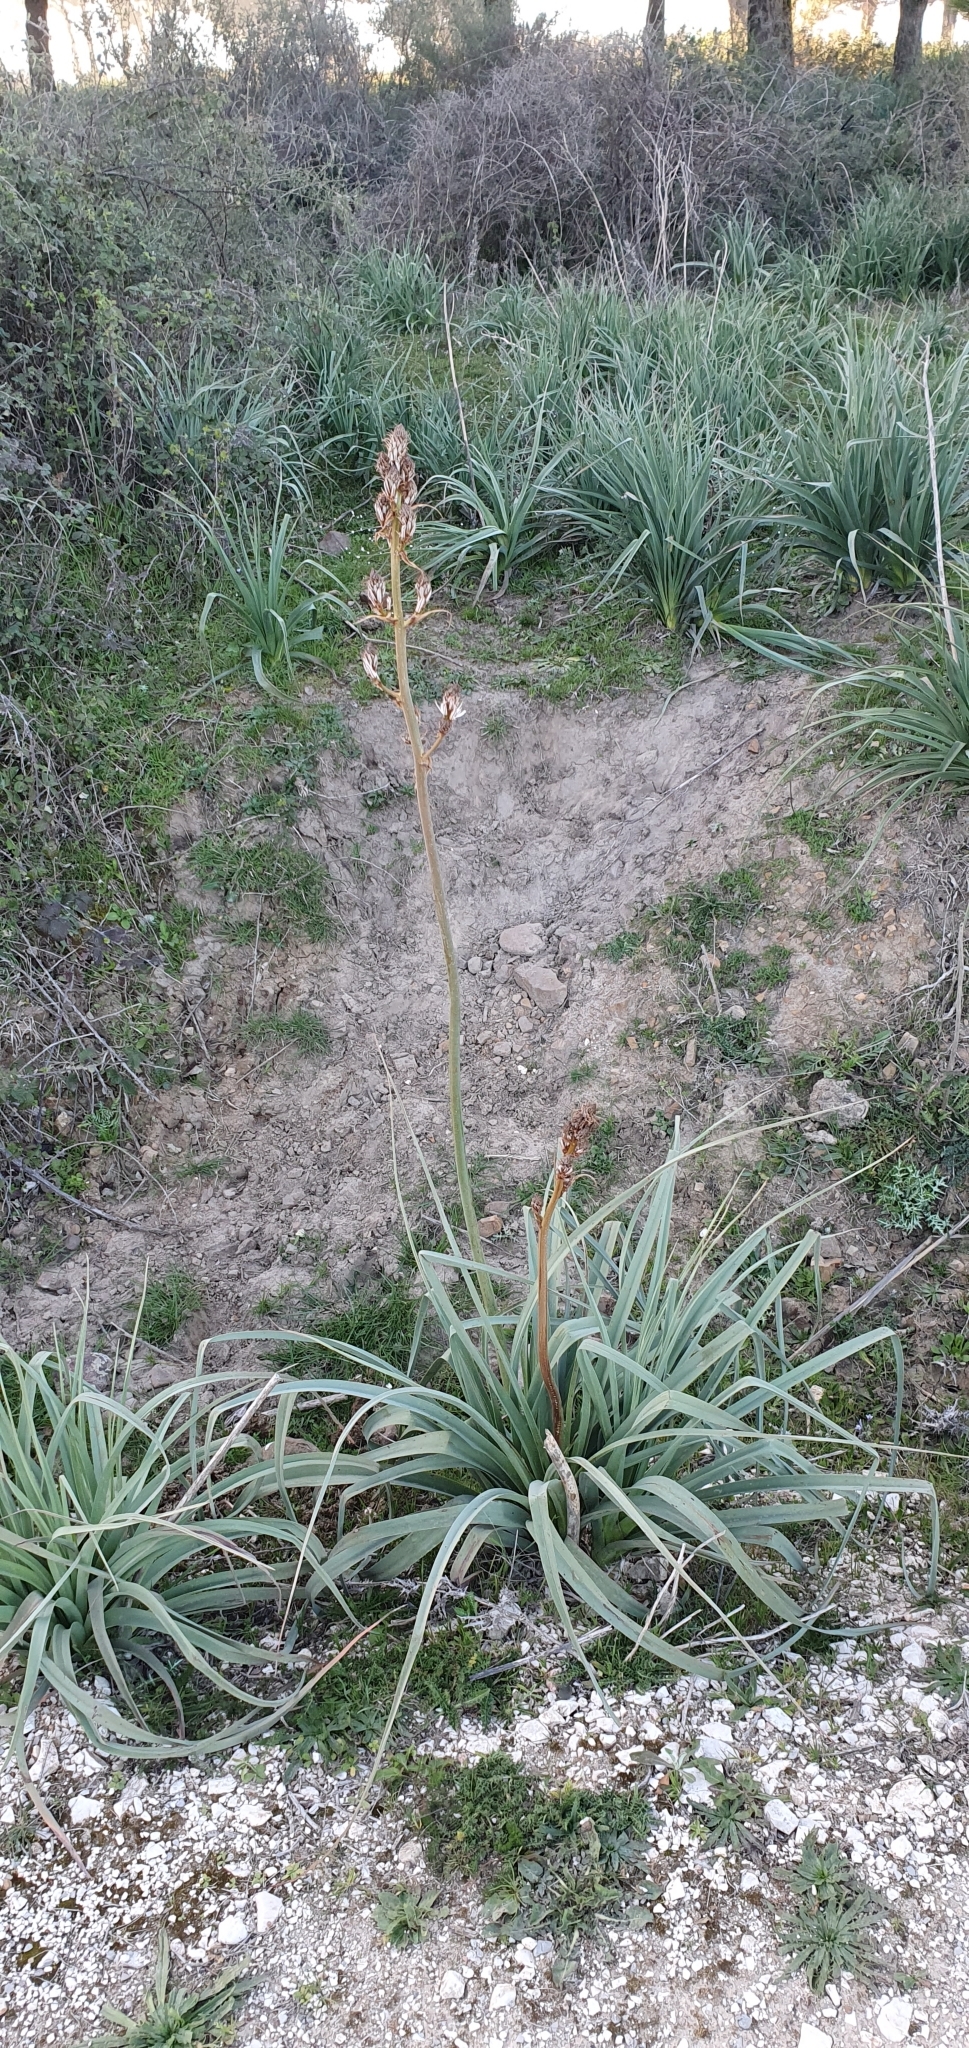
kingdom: Plantae
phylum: Tracheophyta
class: Liliopsida
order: Asparagales
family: Asphodelaceae
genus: Asphodelus
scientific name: Asphodelus ramosus
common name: Silverrod
